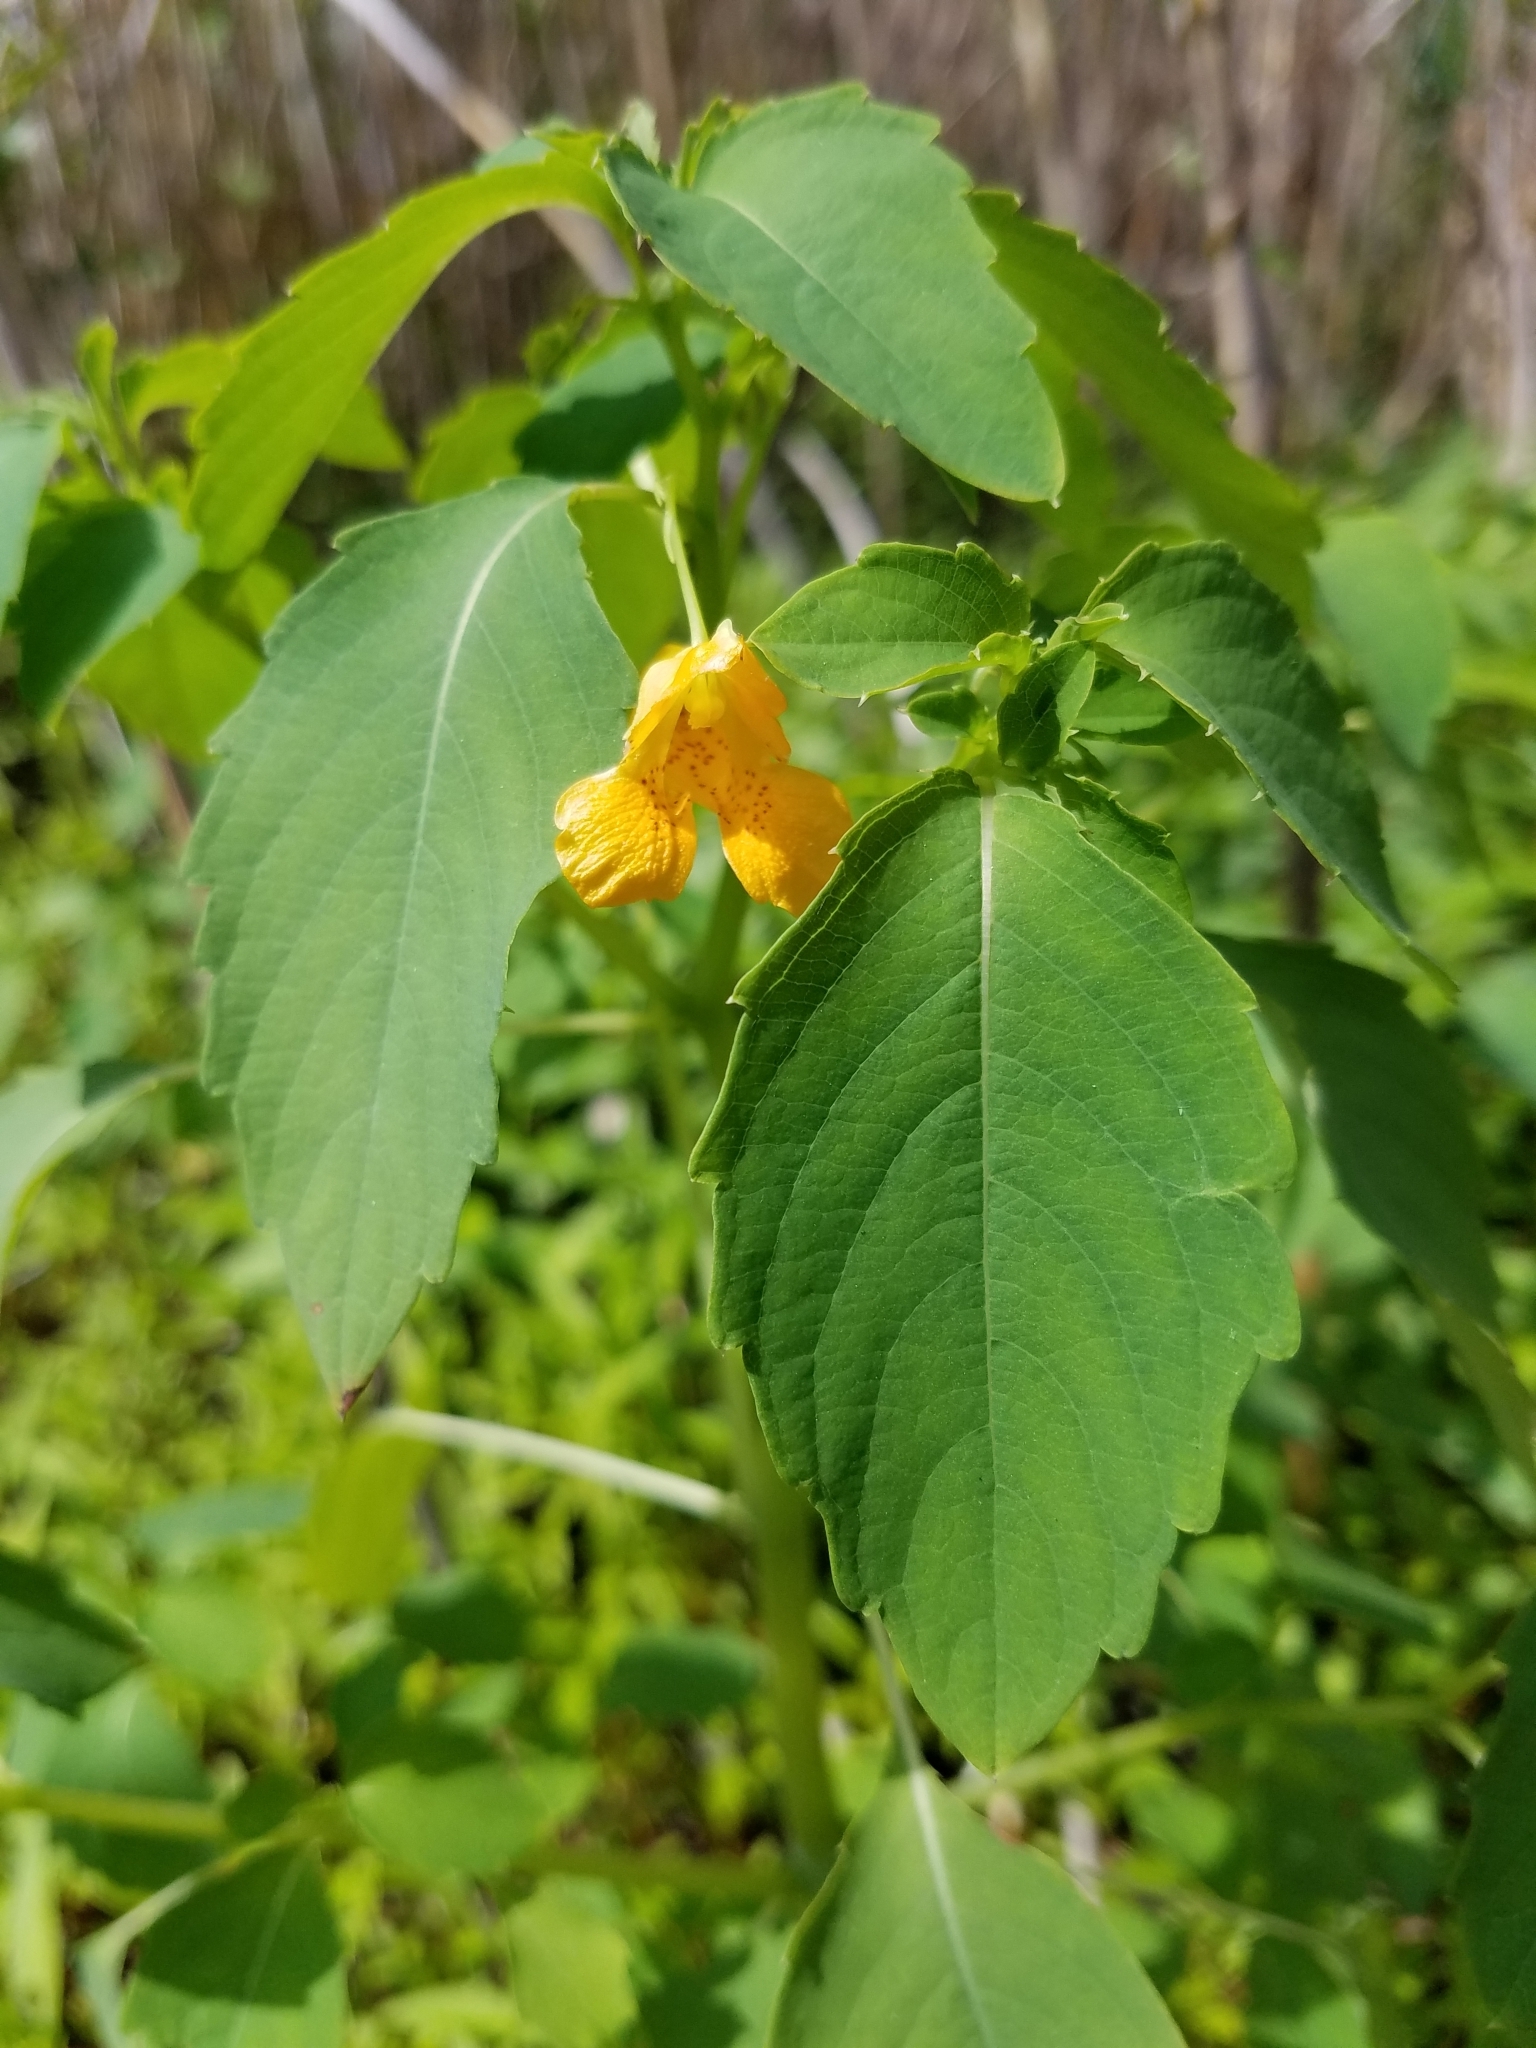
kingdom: Plantae
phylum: Tracheophyta
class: Magnoliopsida
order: Ericales
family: Balsaminaceae
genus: Impatiens
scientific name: Impatiens capensis
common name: Orange balsam
